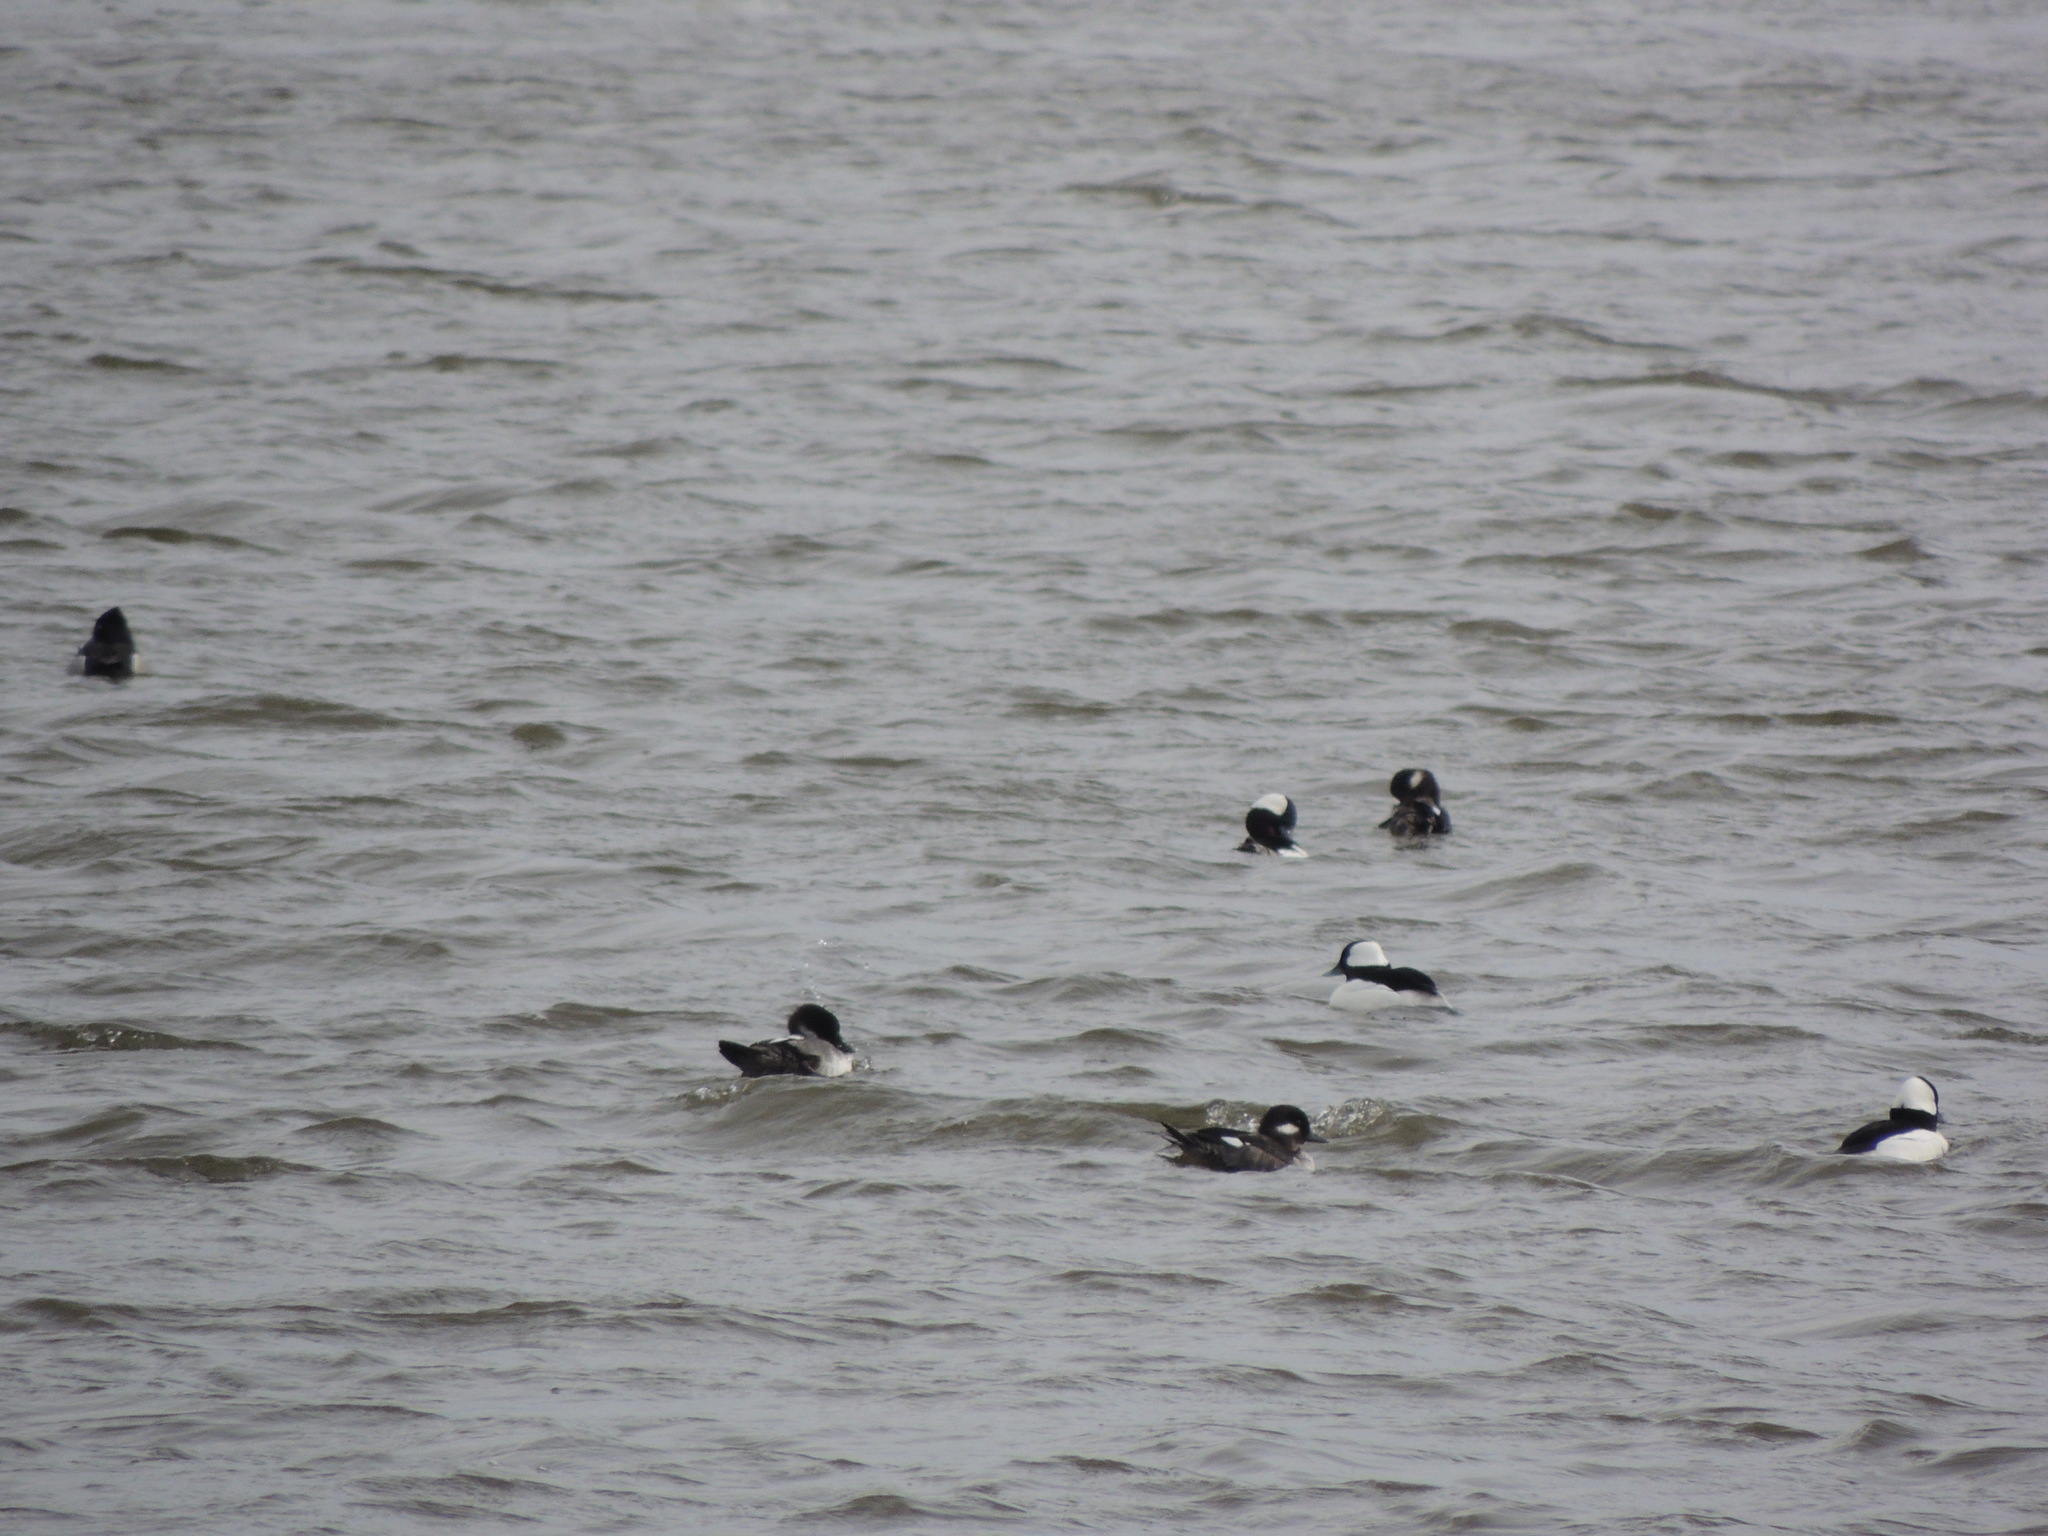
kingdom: Animalia
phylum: Chordata
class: Aves
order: Anseriformes
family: Anatidae
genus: Bucephala
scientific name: Bucephala albeola
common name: Bufflehead
